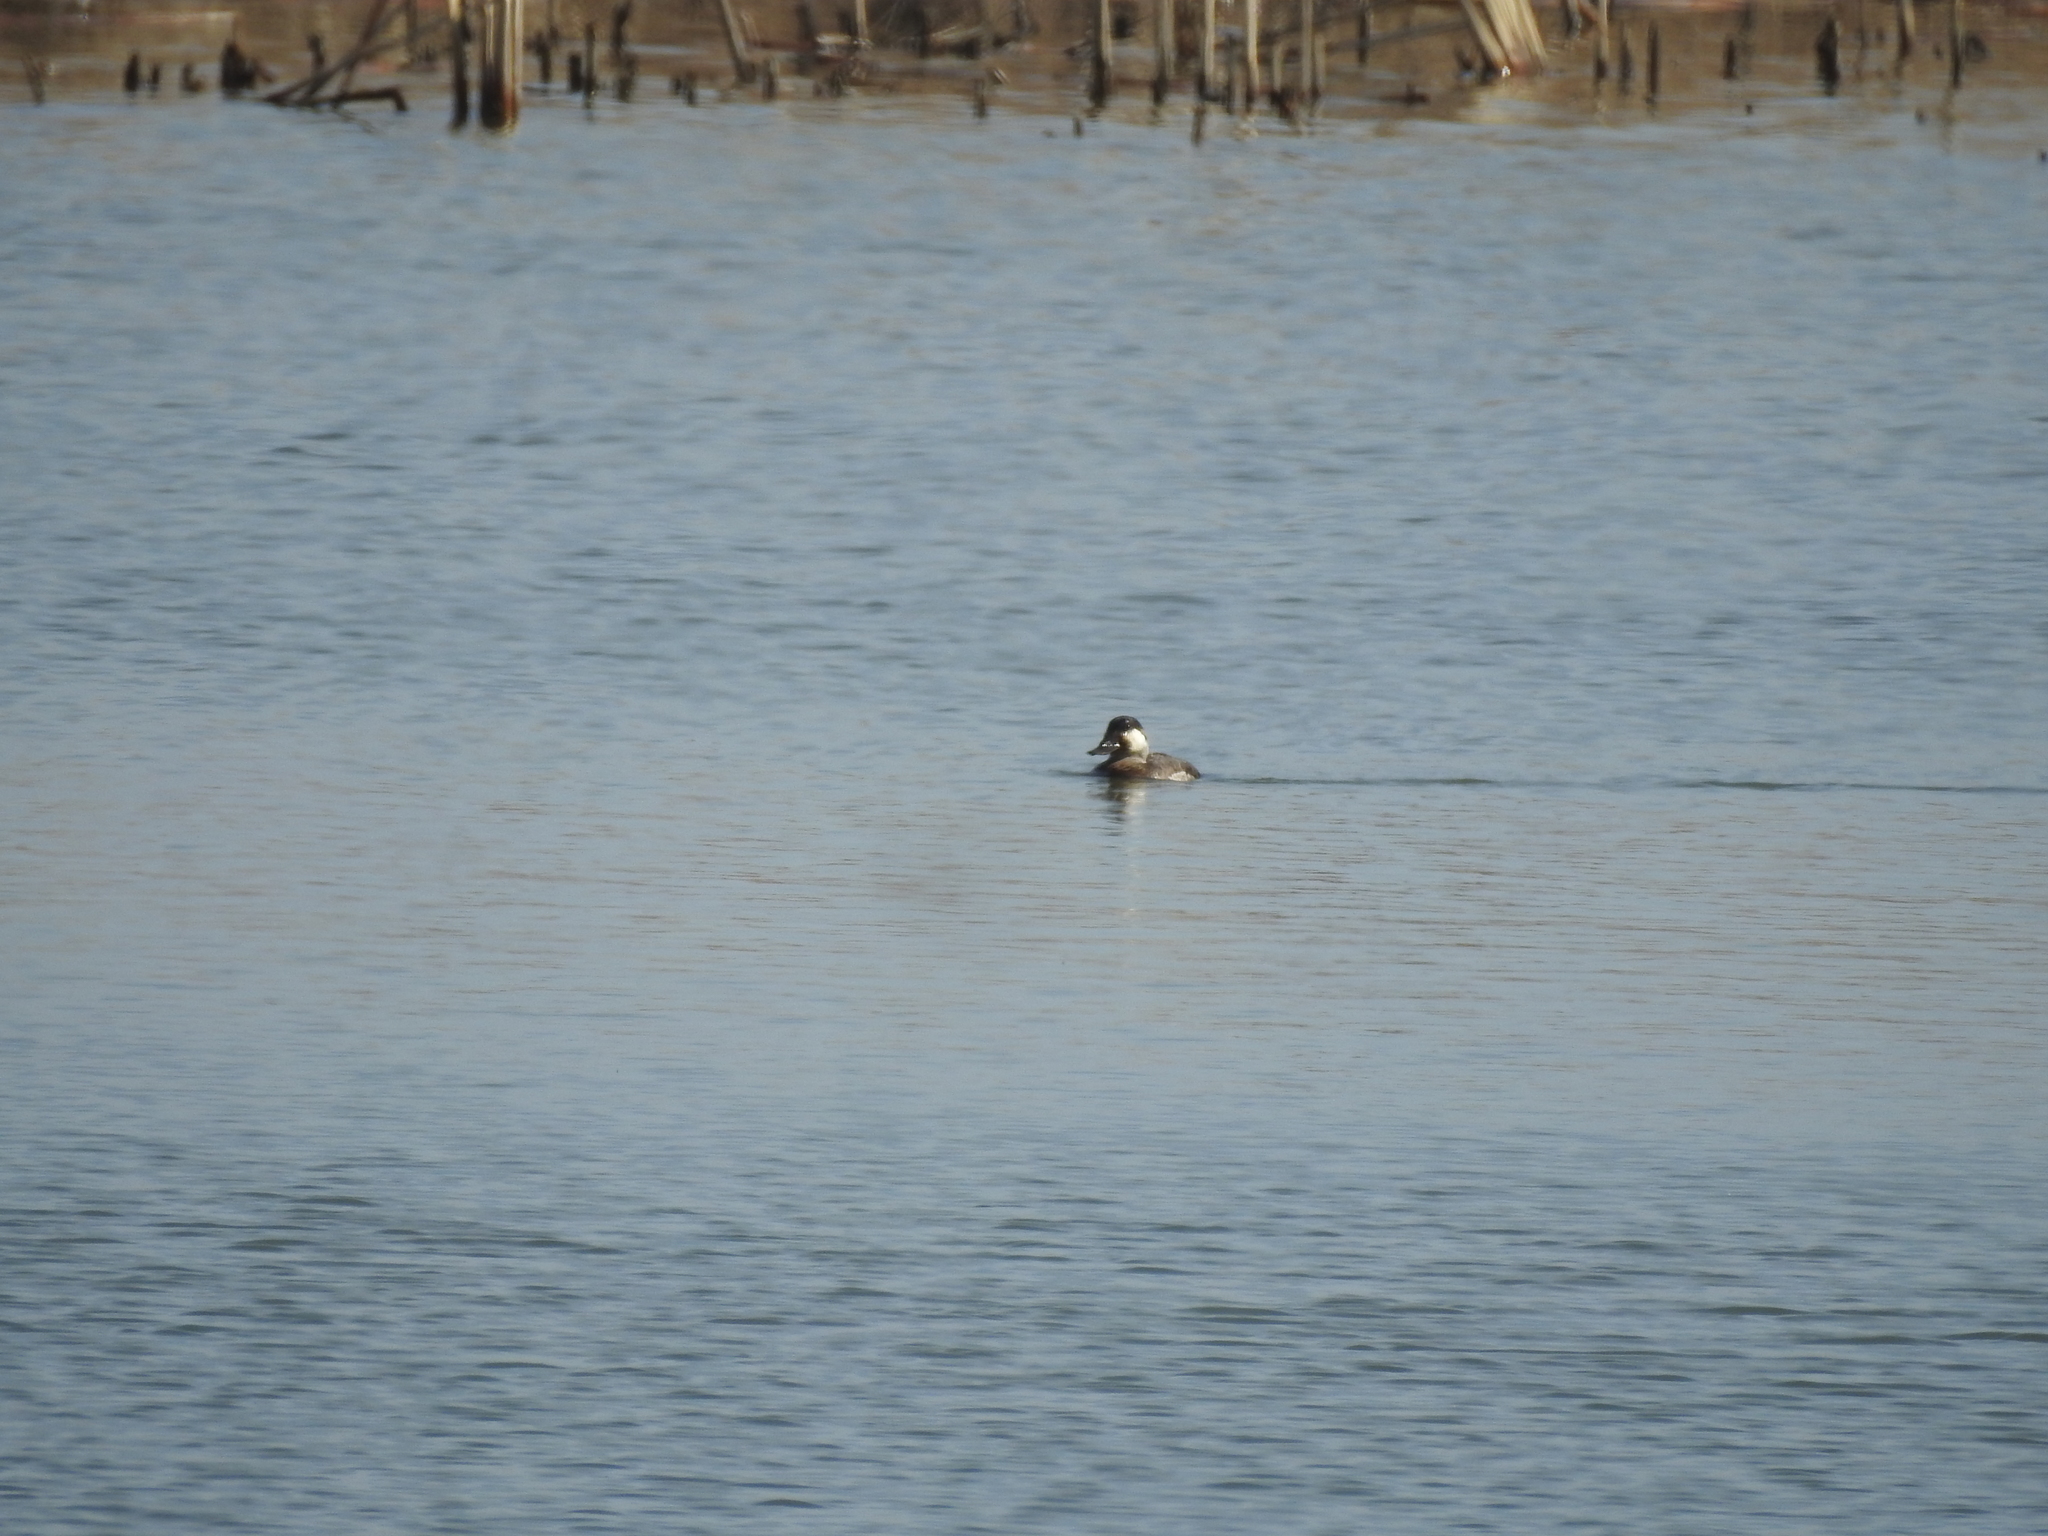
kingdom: Animalia
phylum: Chordata
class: Aves
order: Anseriformes
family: Anatidae
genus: Oxyura
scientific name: Oxyura jamaicensis
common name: Ruddy duck
